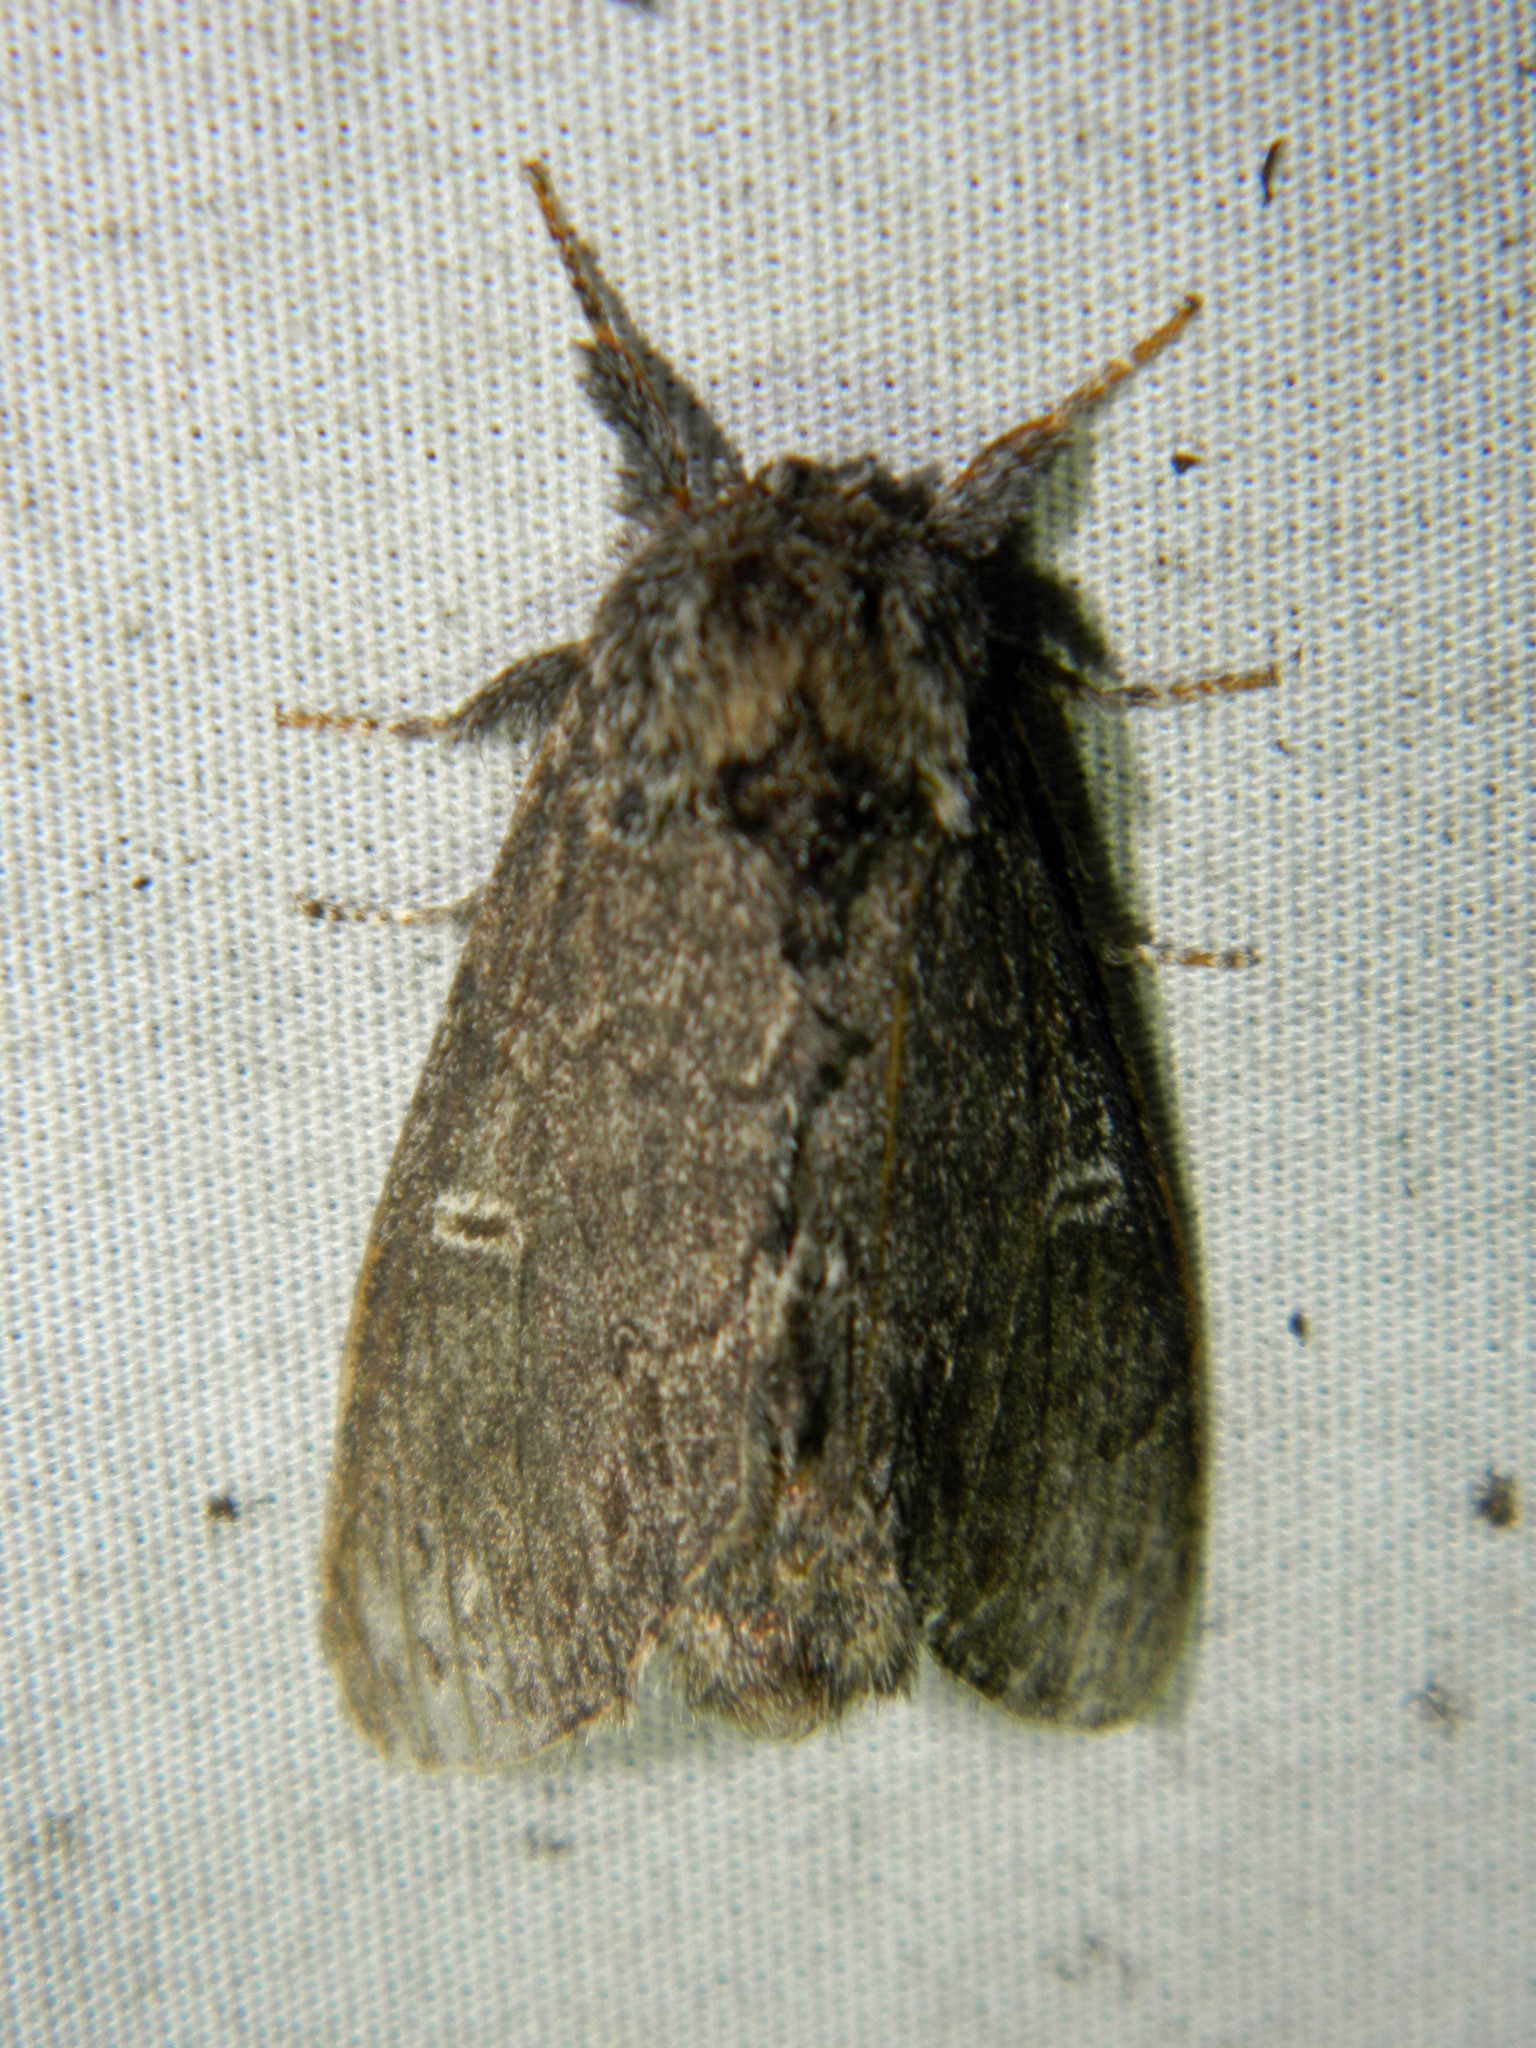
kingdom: Animalia
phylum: Arthropoda
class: Insecta
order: Lepidoptera
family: Notodontidae
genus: Notodonta
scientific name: Notodonta torva
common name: Large dark prominent
